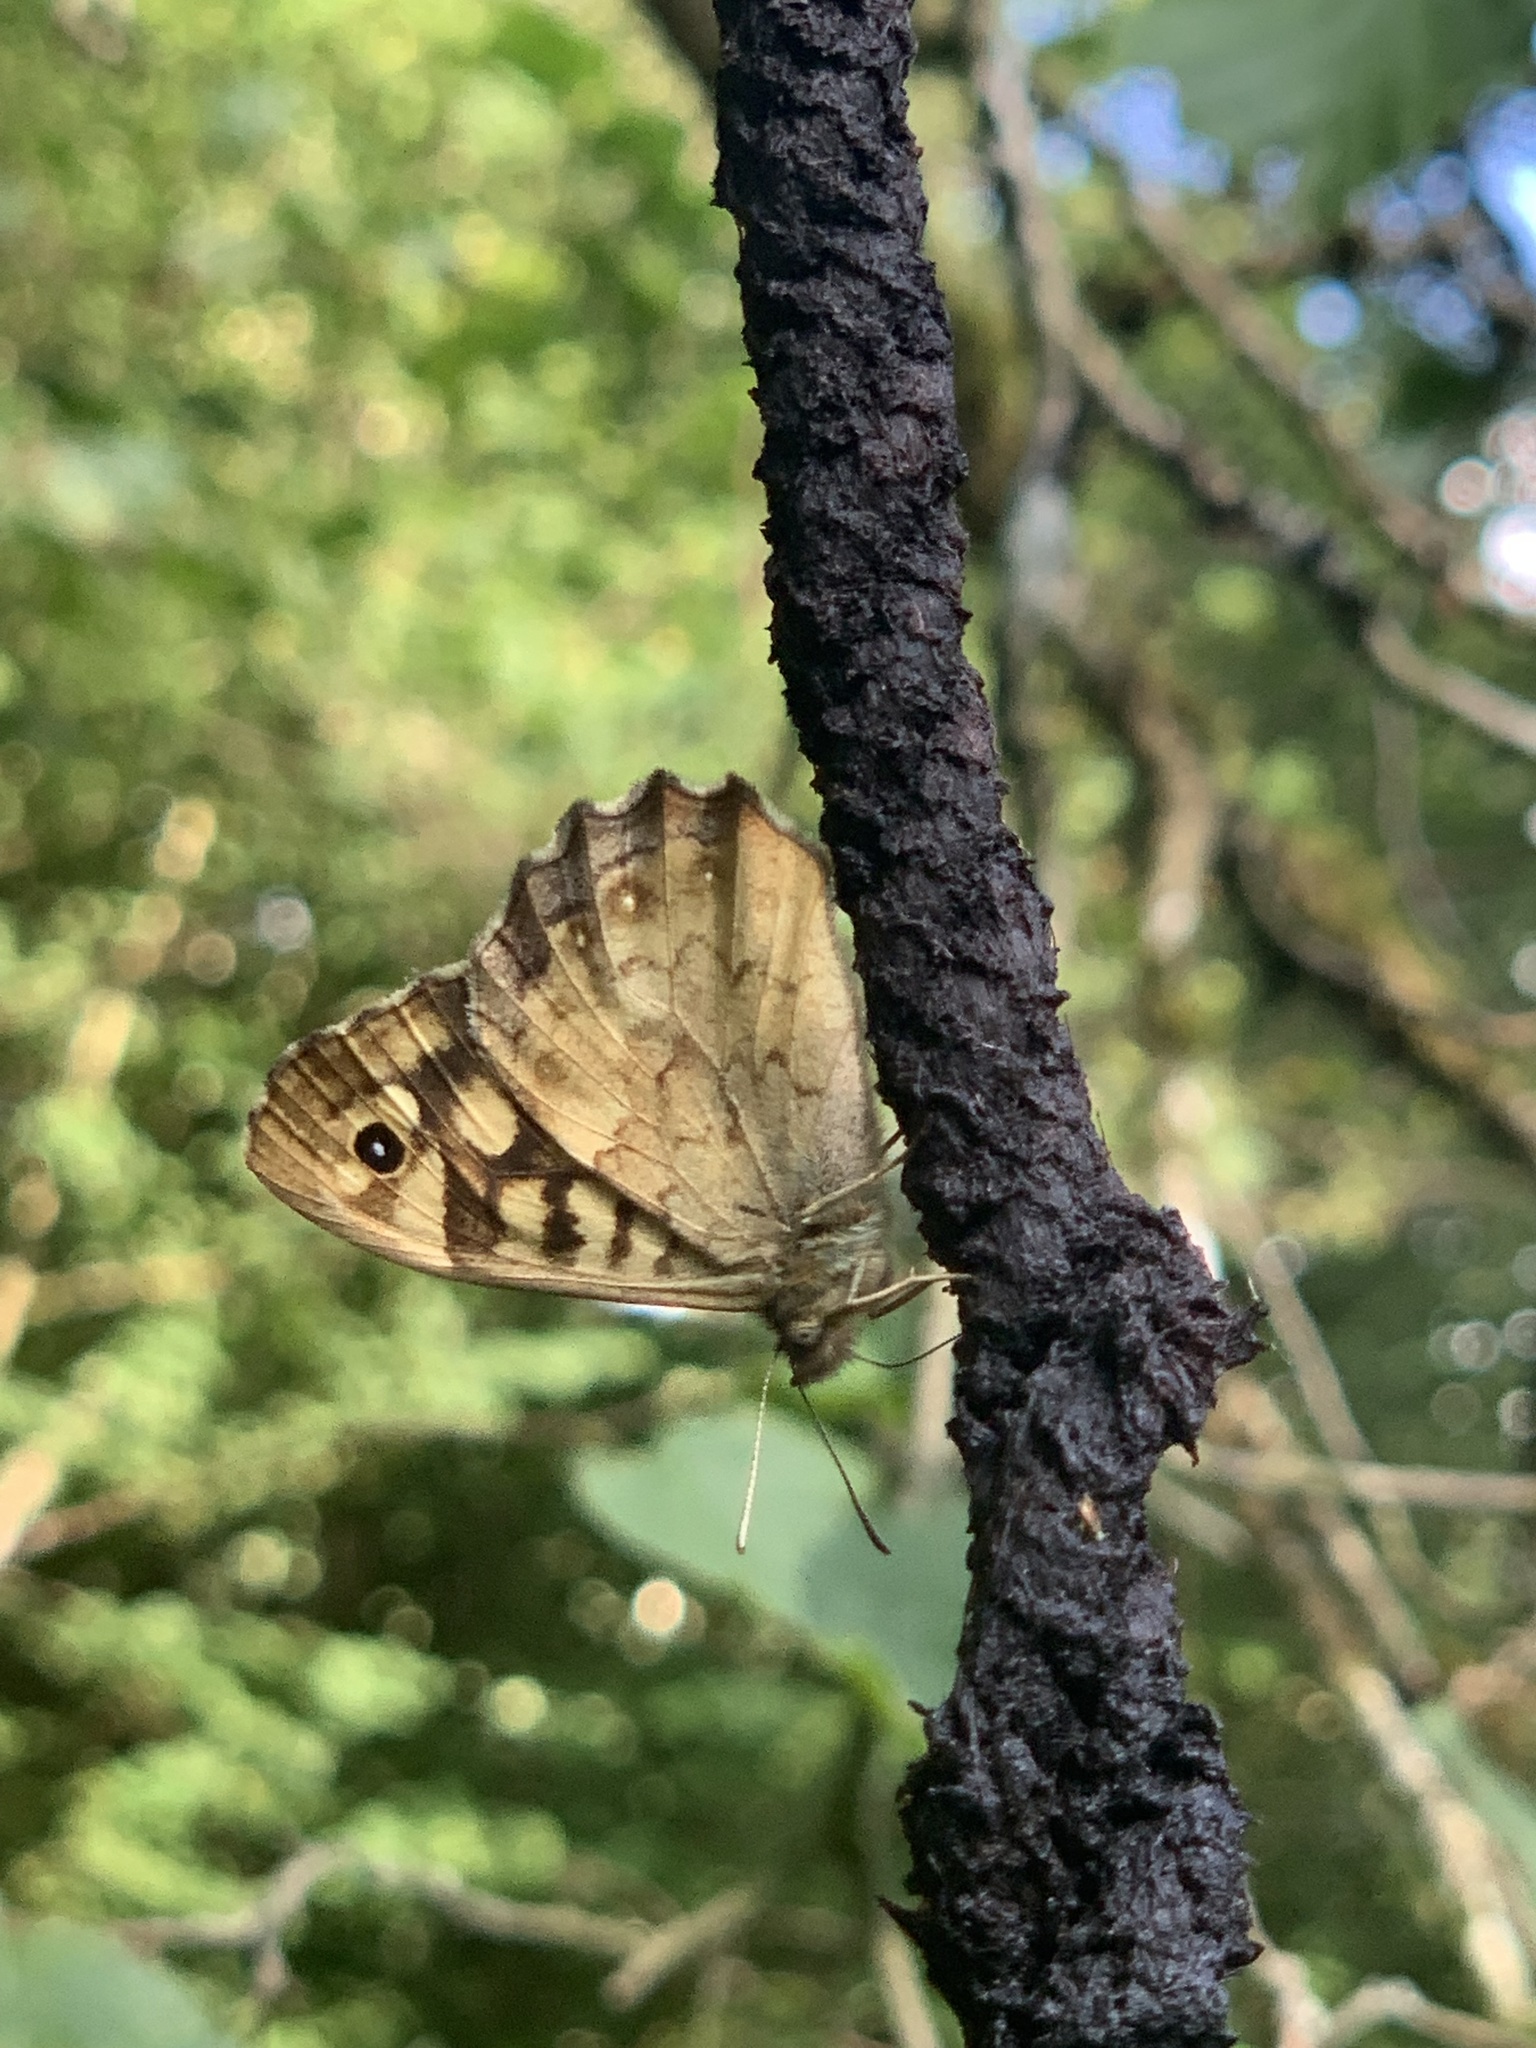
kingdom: Animalia
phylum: Arthropoda
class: Insecta
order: Lepidoptera
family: Nymphalidae
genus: Pararge
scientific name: Pararge aegeria
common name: Speckled wood
